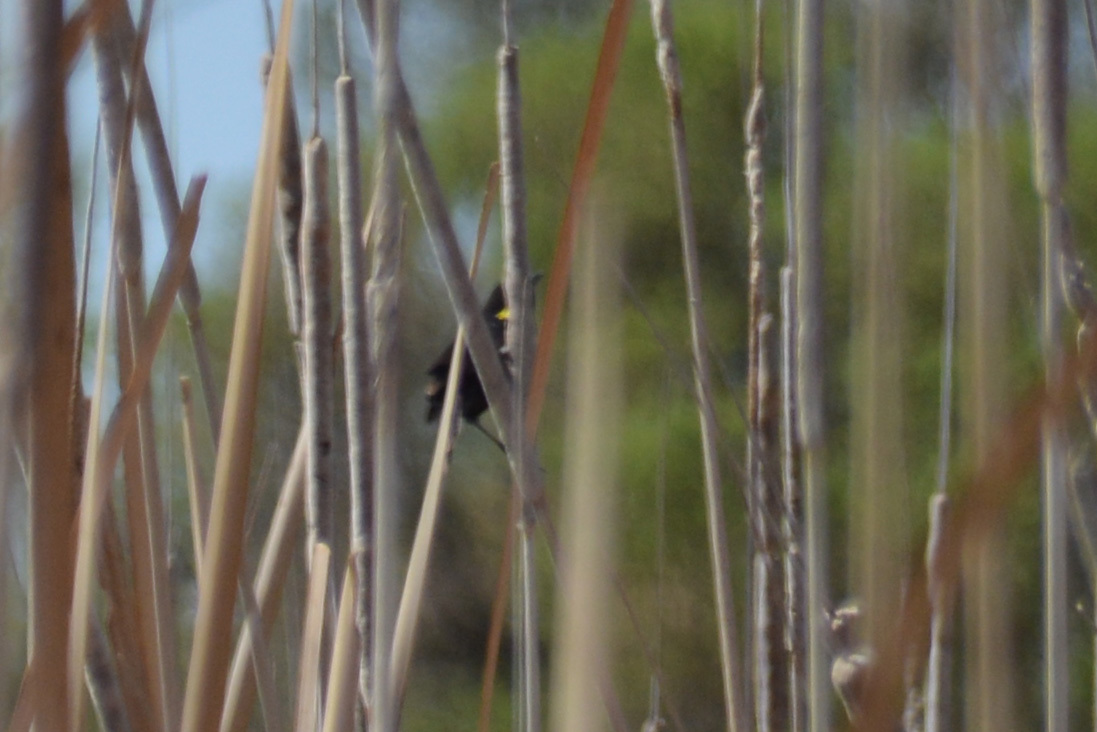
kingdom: Animalia
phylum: Chordata
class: Aves
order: Passeriformes
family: Icteridae
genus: Agelasticus
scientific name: Agelasticus thilius
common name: Yellow-winged blackbird
